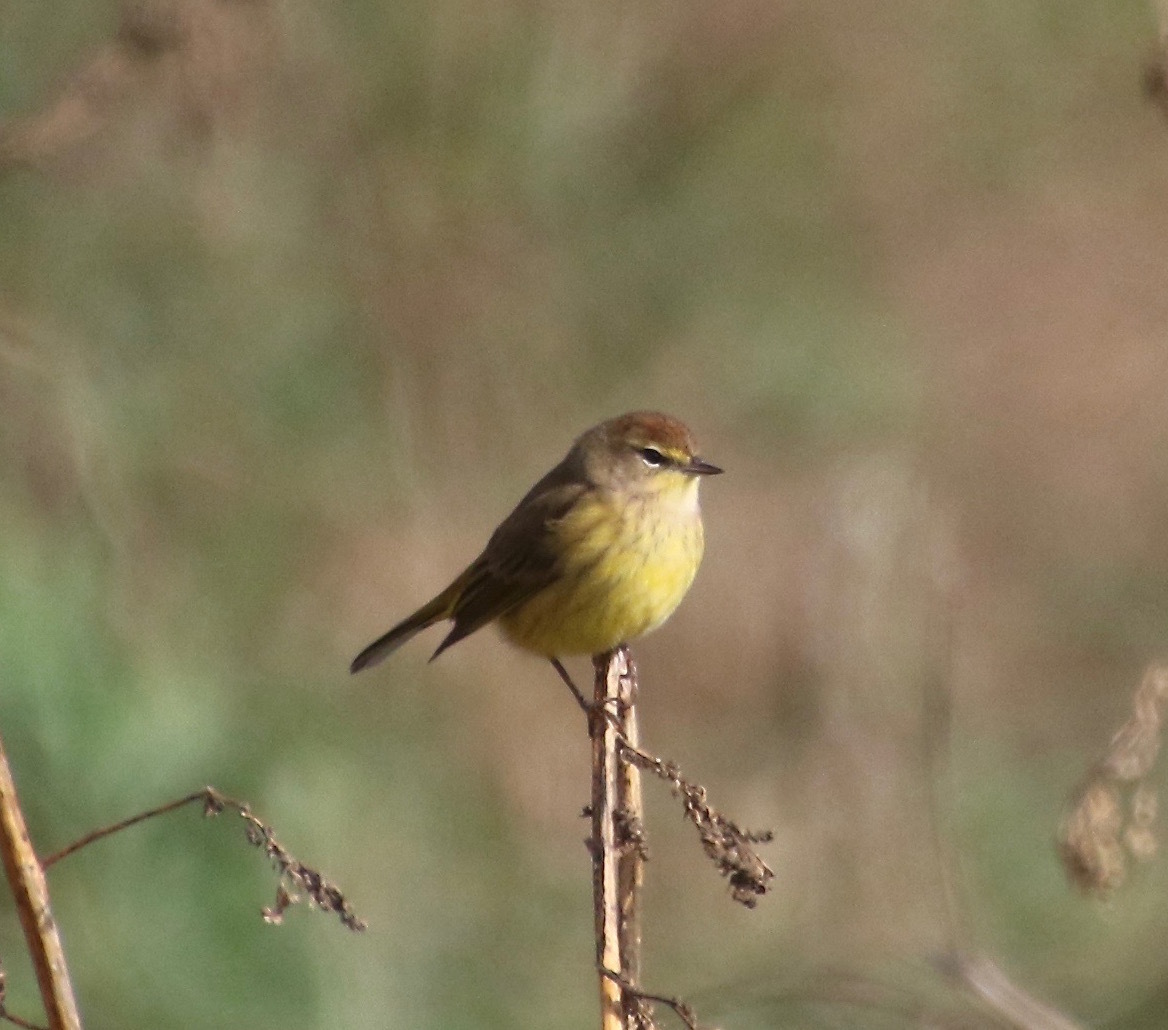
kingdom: Animalia
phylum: Chordata
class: Aves
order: Passeriformes
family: Parulidae
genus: Setophaga
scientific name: Setophaga palmarum
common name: Palm warbler
